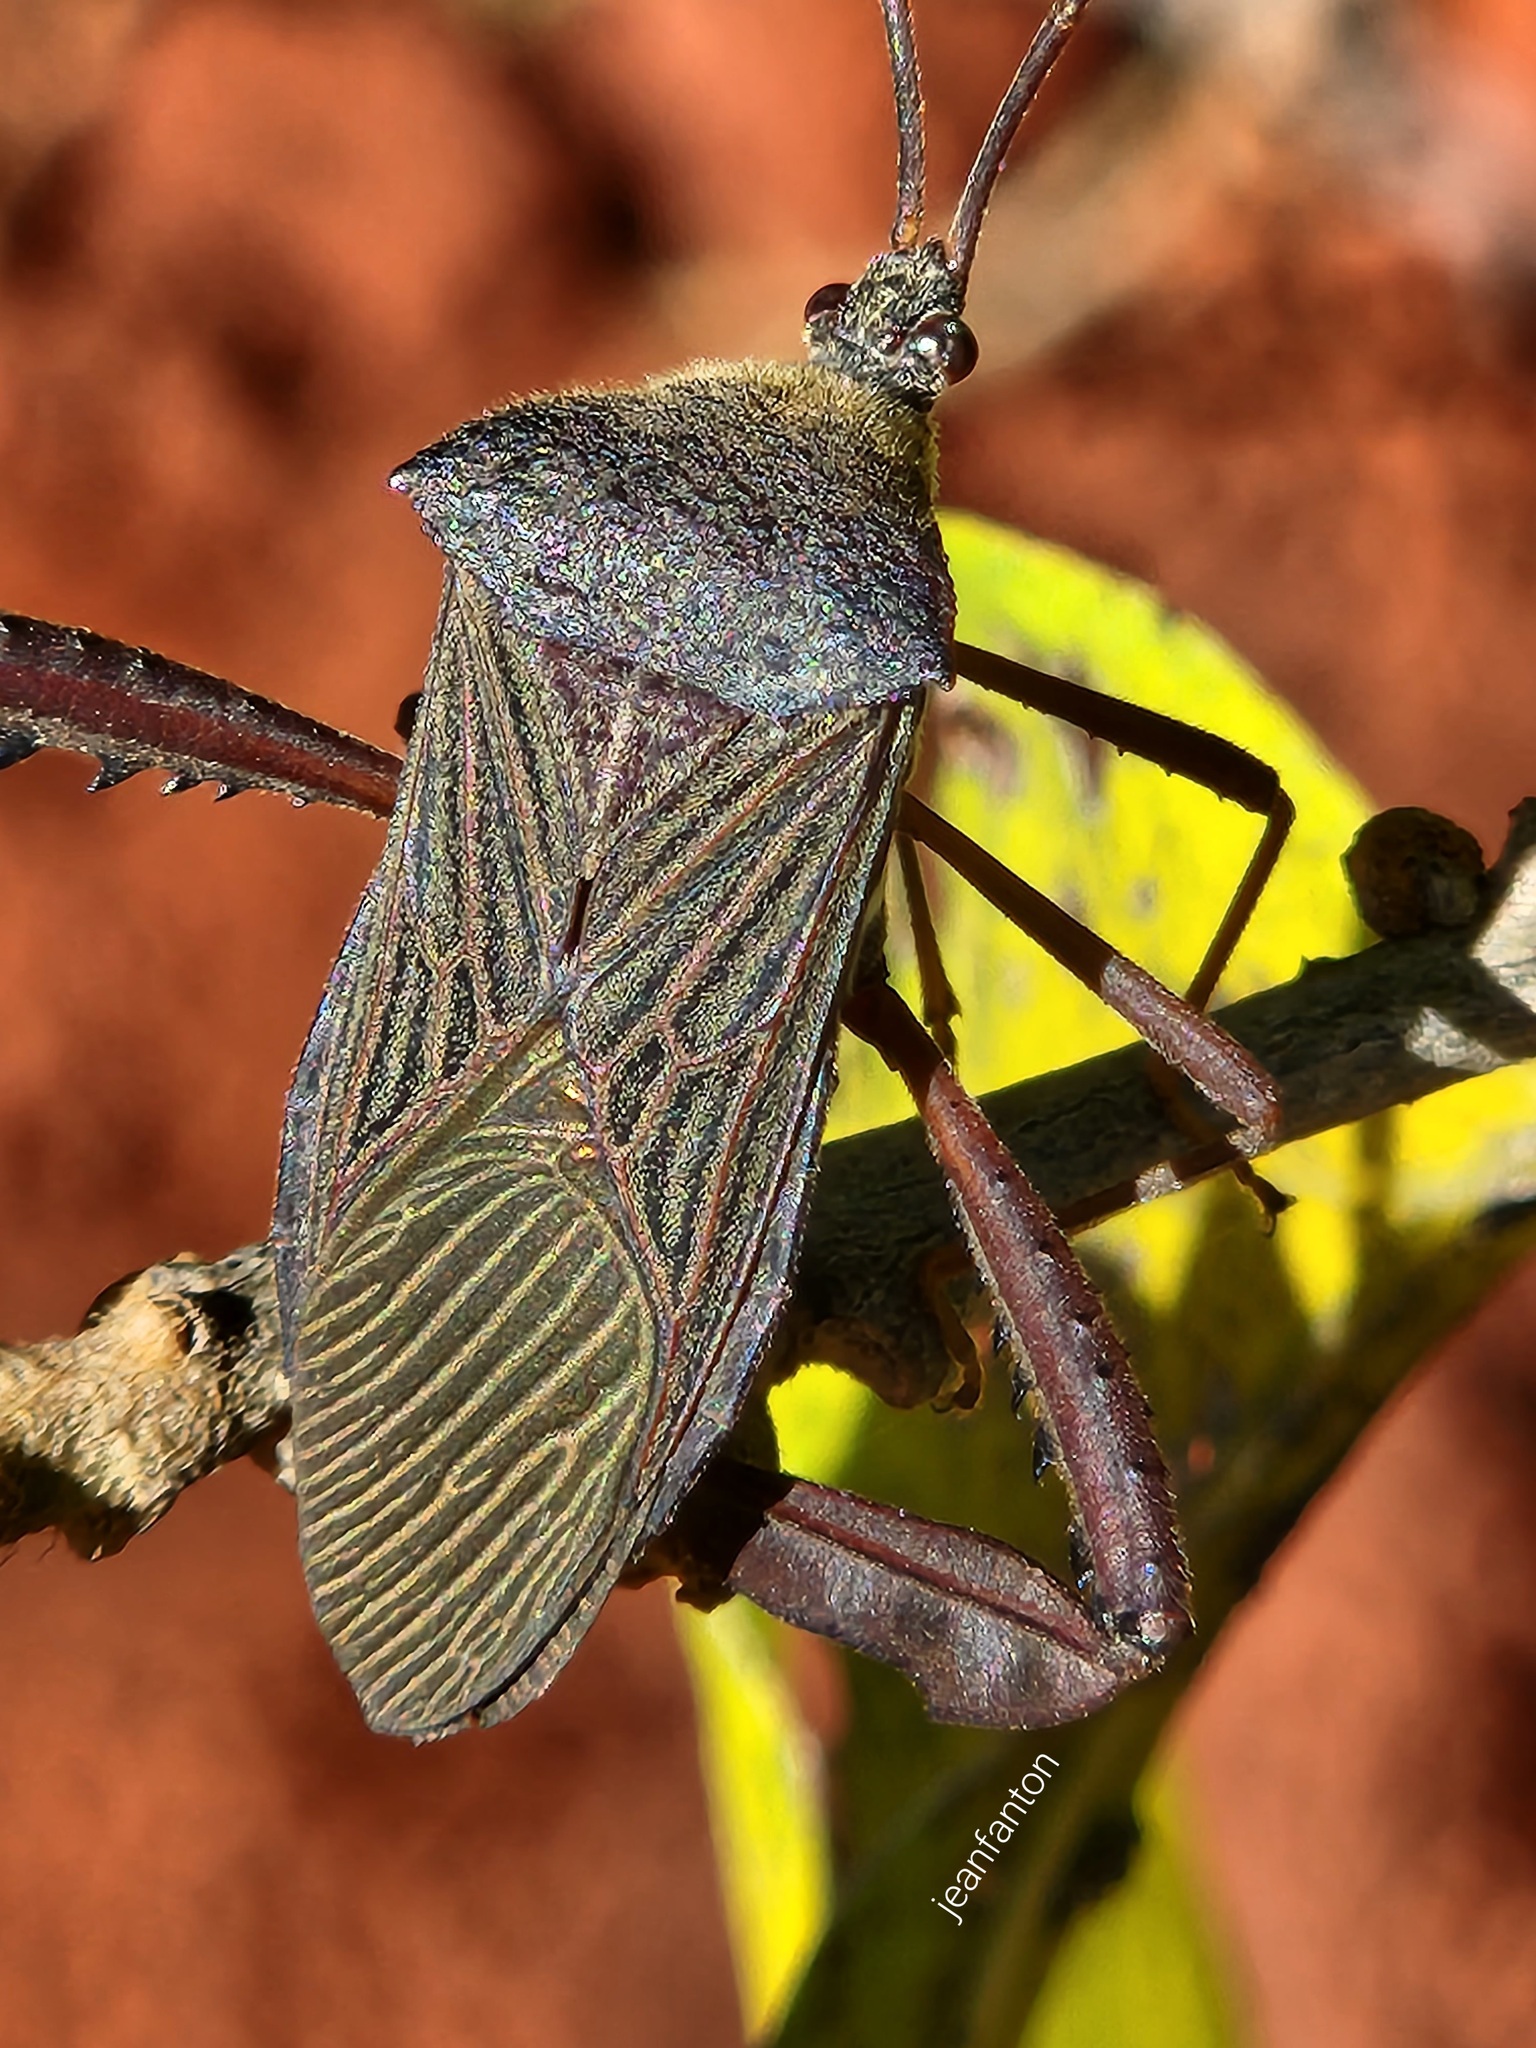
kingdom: Animalia
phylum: Arthropoda
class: Insecta
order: Hemiptera
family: Coreidae
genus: Acanthocephala
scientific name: Acanthocephala parensis
